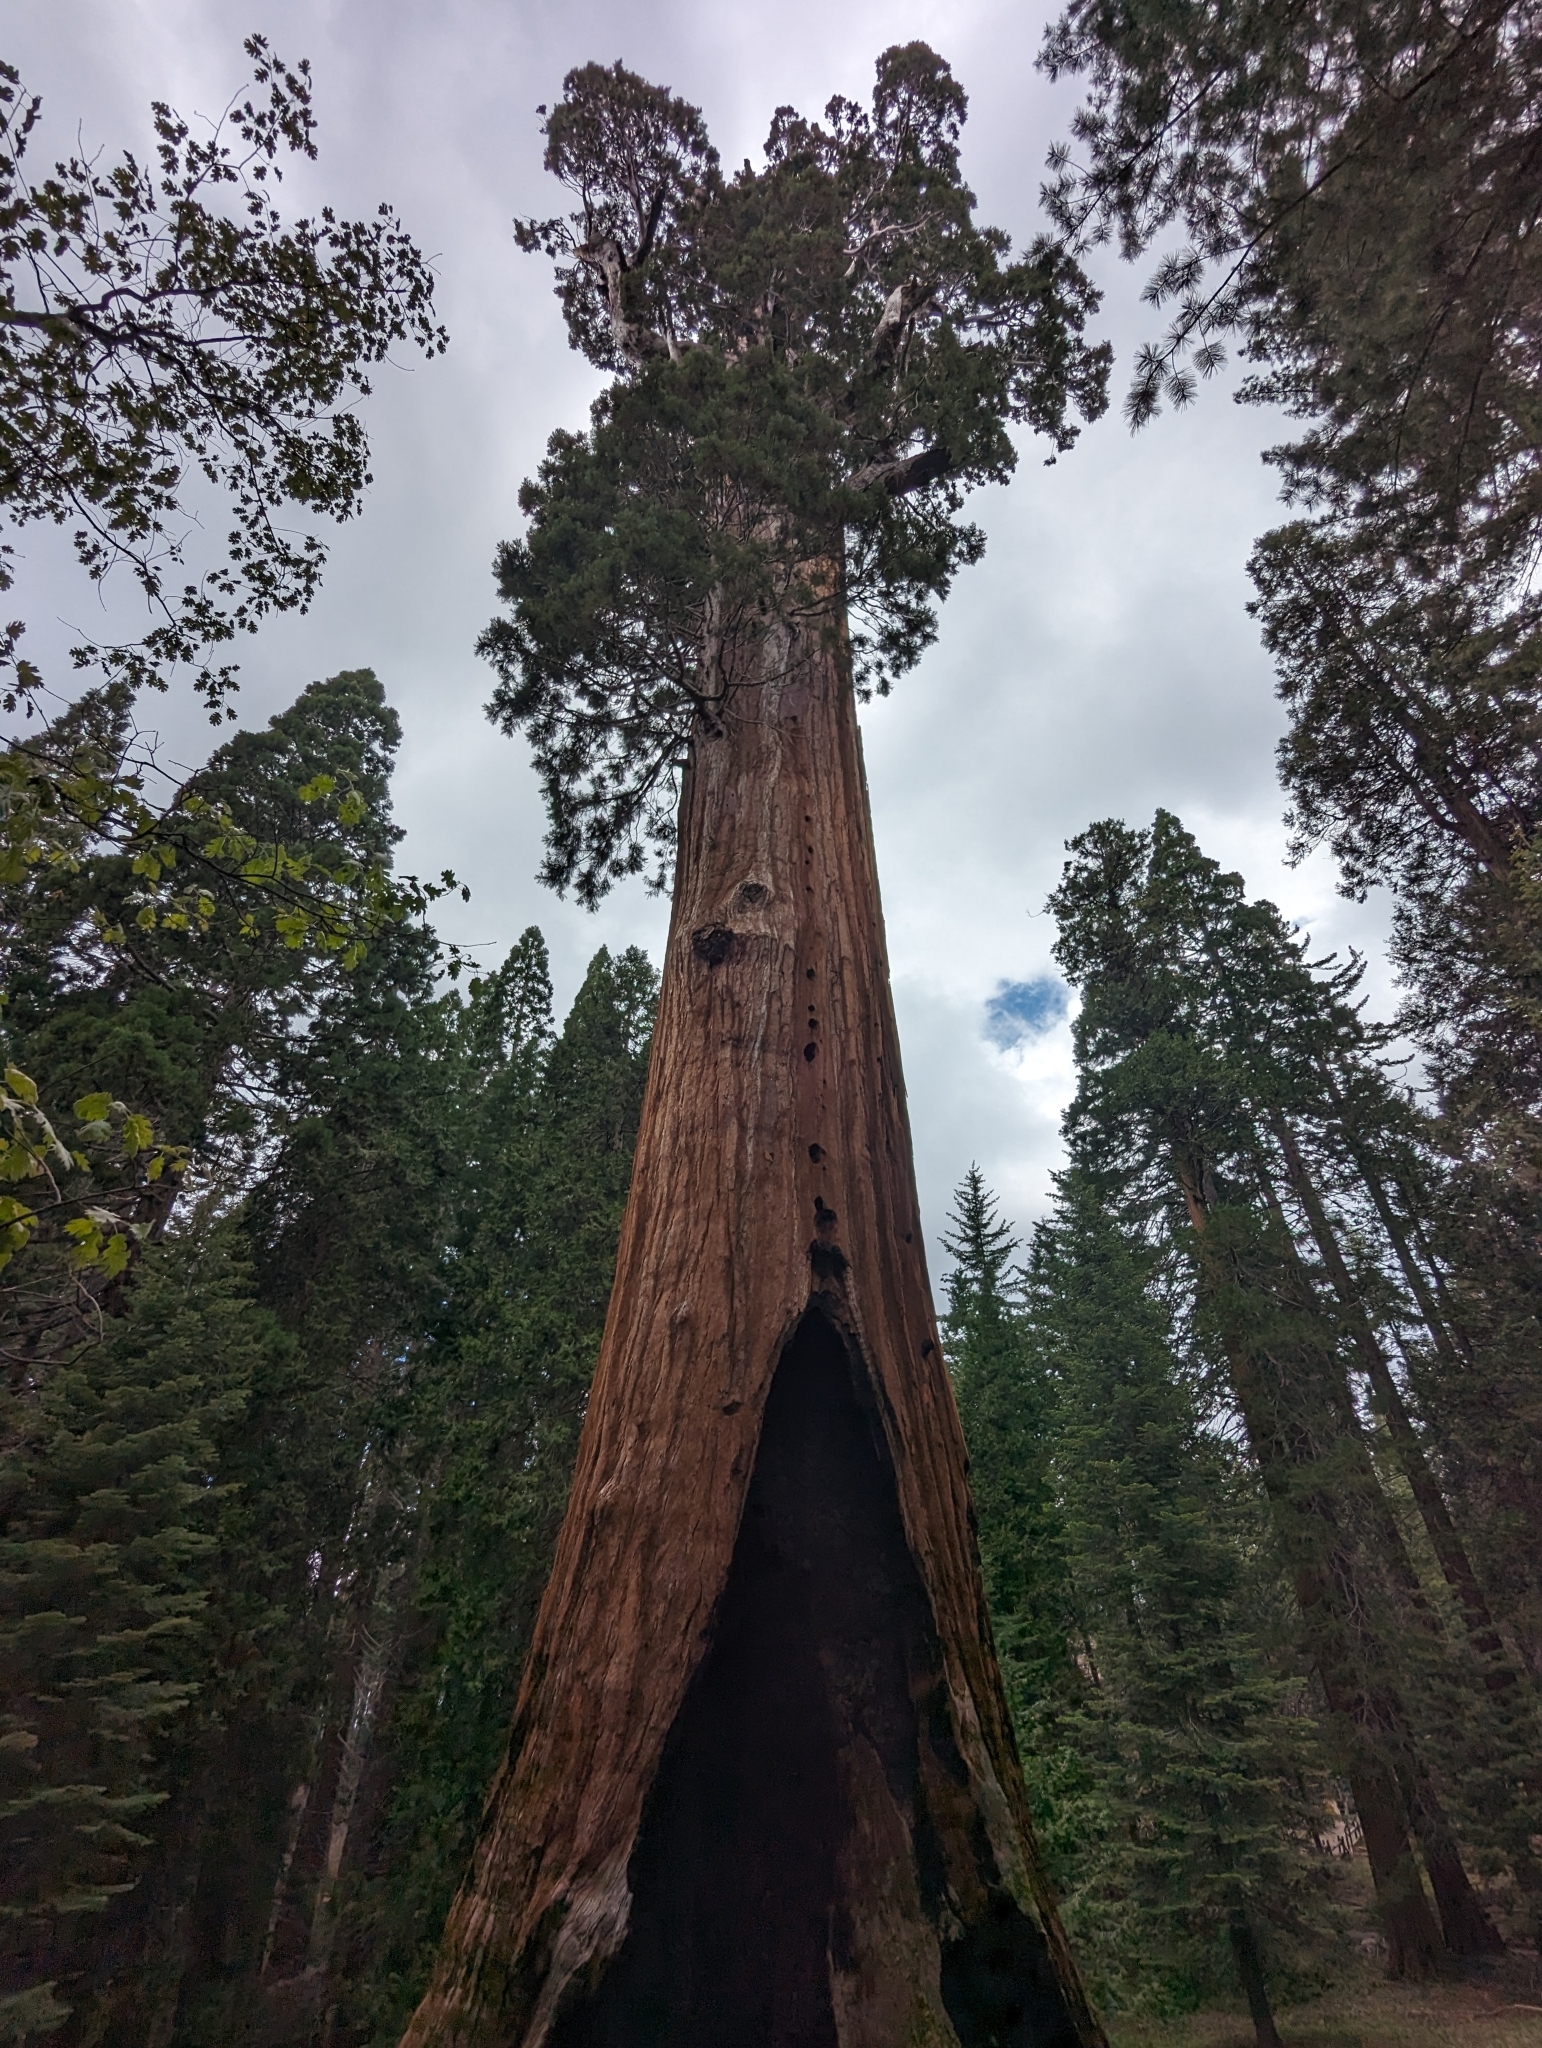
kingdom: Plantae
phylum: Tracheophyta
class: Pinopsida
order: Pinales
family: Cupressaceae
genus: Sequoiadendron
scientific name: Sequoiadendron giganteum
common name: Wellingtonia
